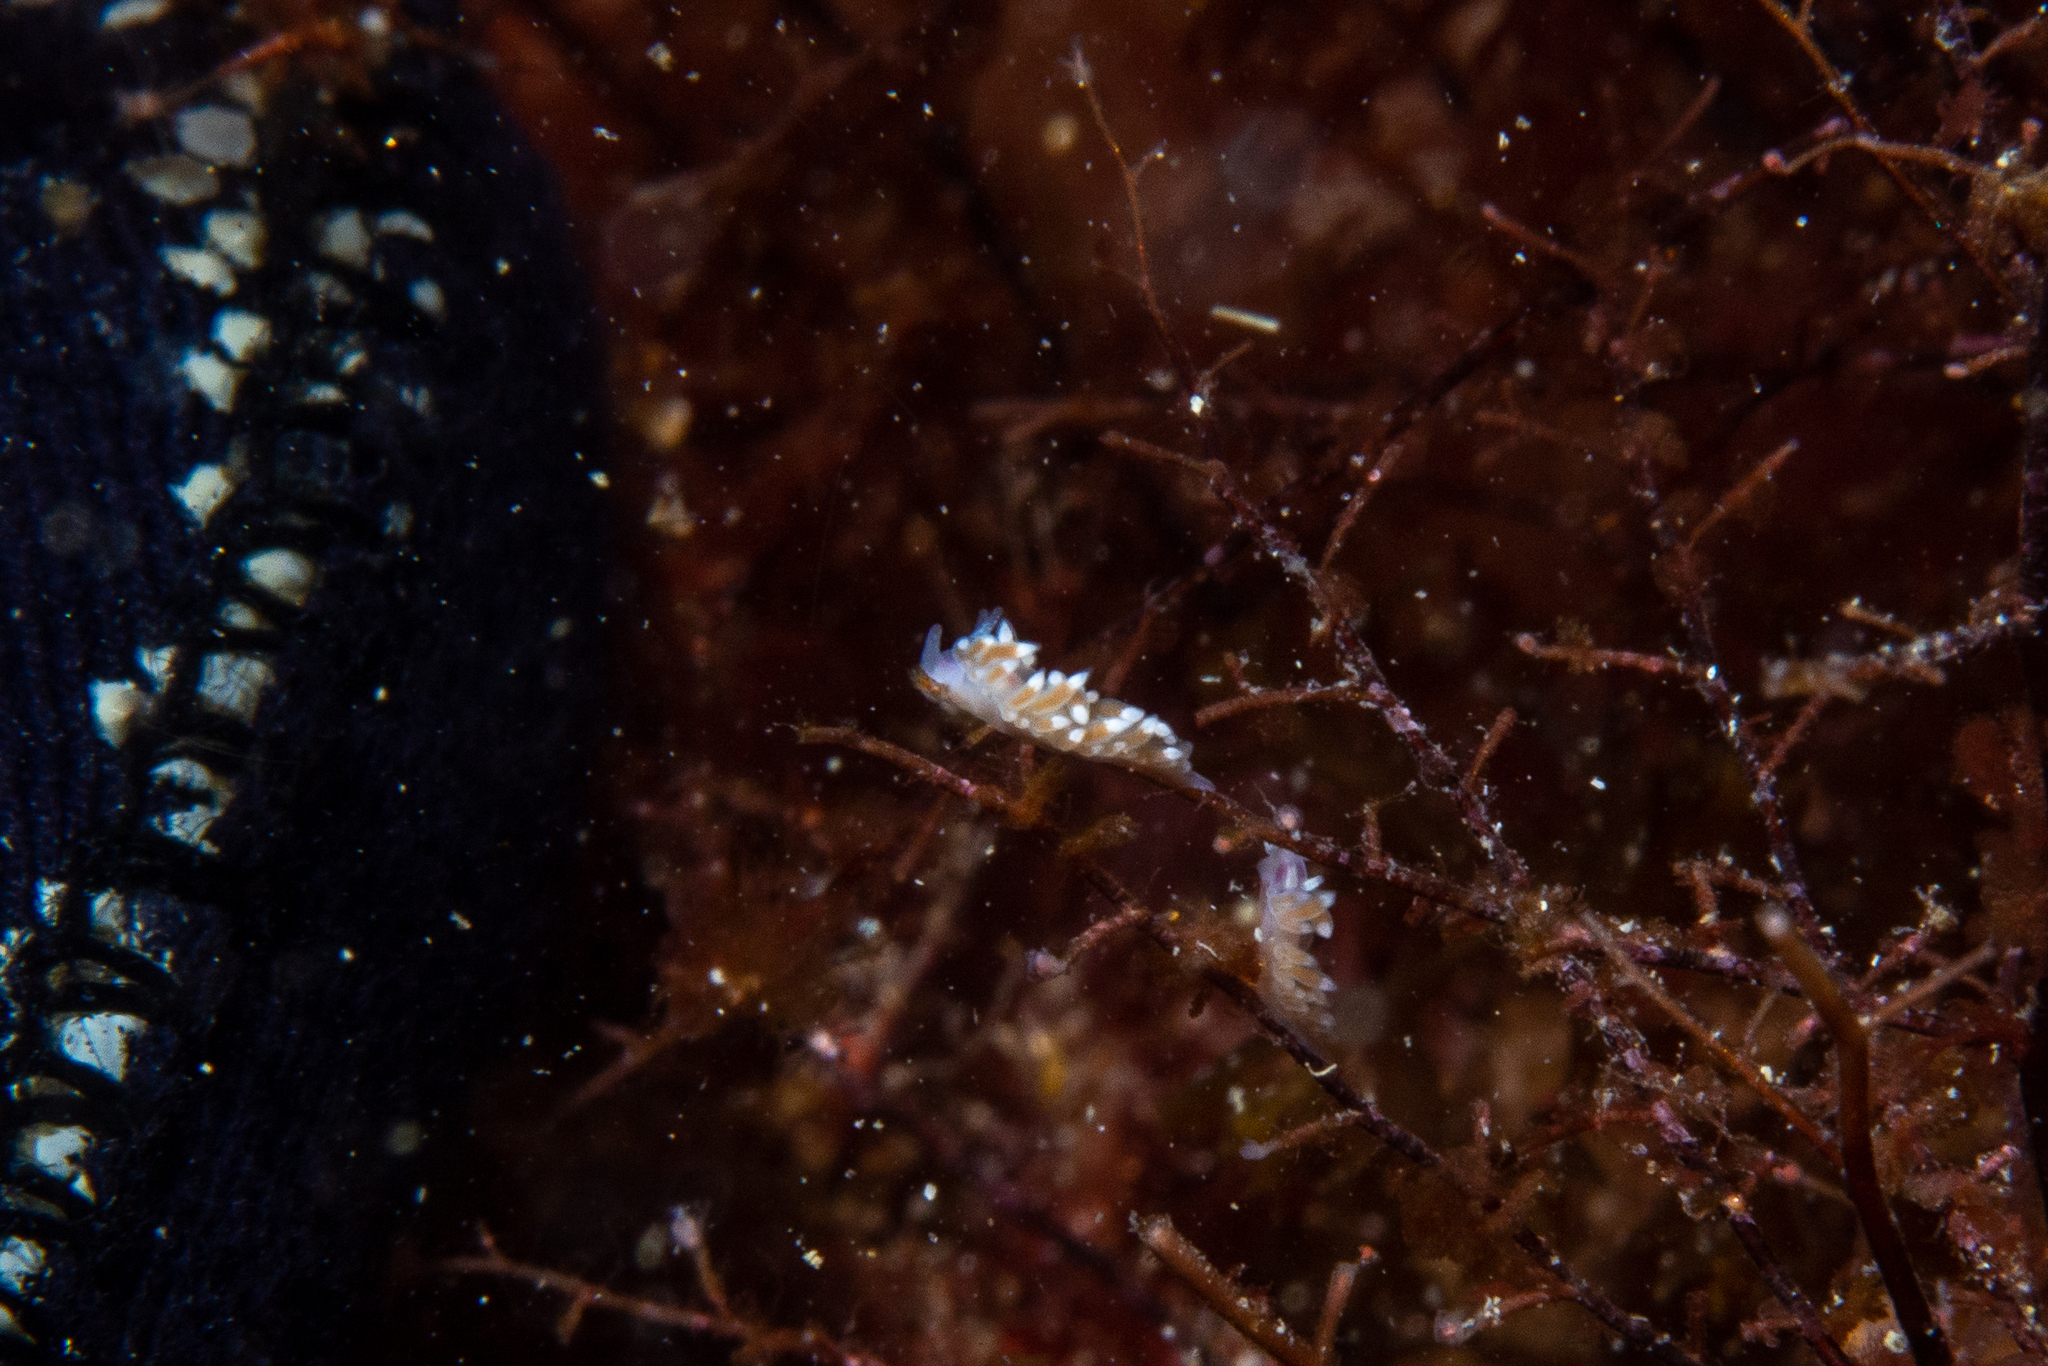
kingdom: Animalia
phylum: Mollusca
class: Gastropoda
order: Nudibranchia
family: Flabellinidae
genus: Coryphellina
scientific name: Coryphellina poenicia
